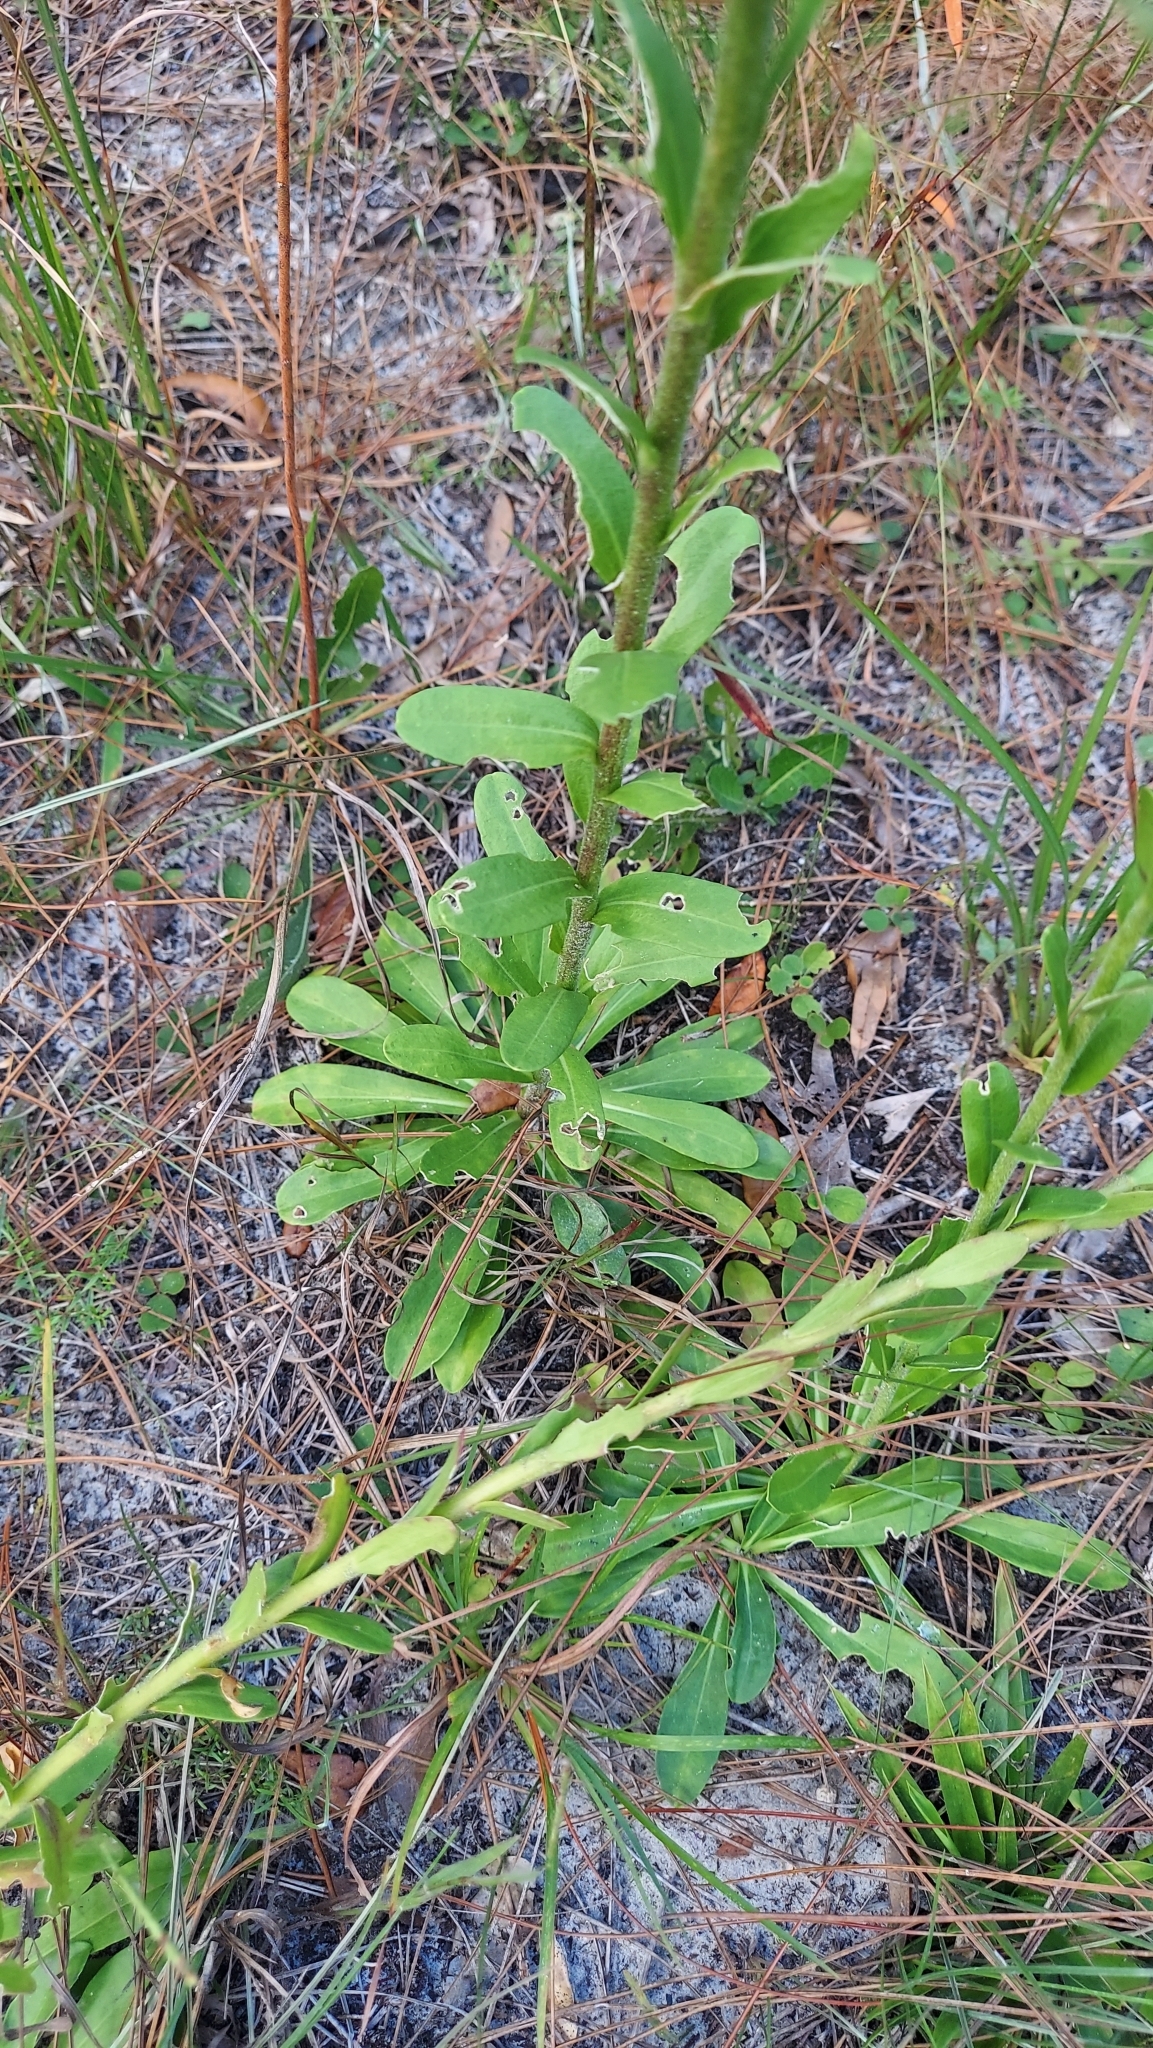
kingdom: Plantae
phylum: Tracheophyta
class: Magnoliopsida
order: Asterales
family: Asteraceae
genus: Carphephorus
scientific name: Carphephorus corymbosus
